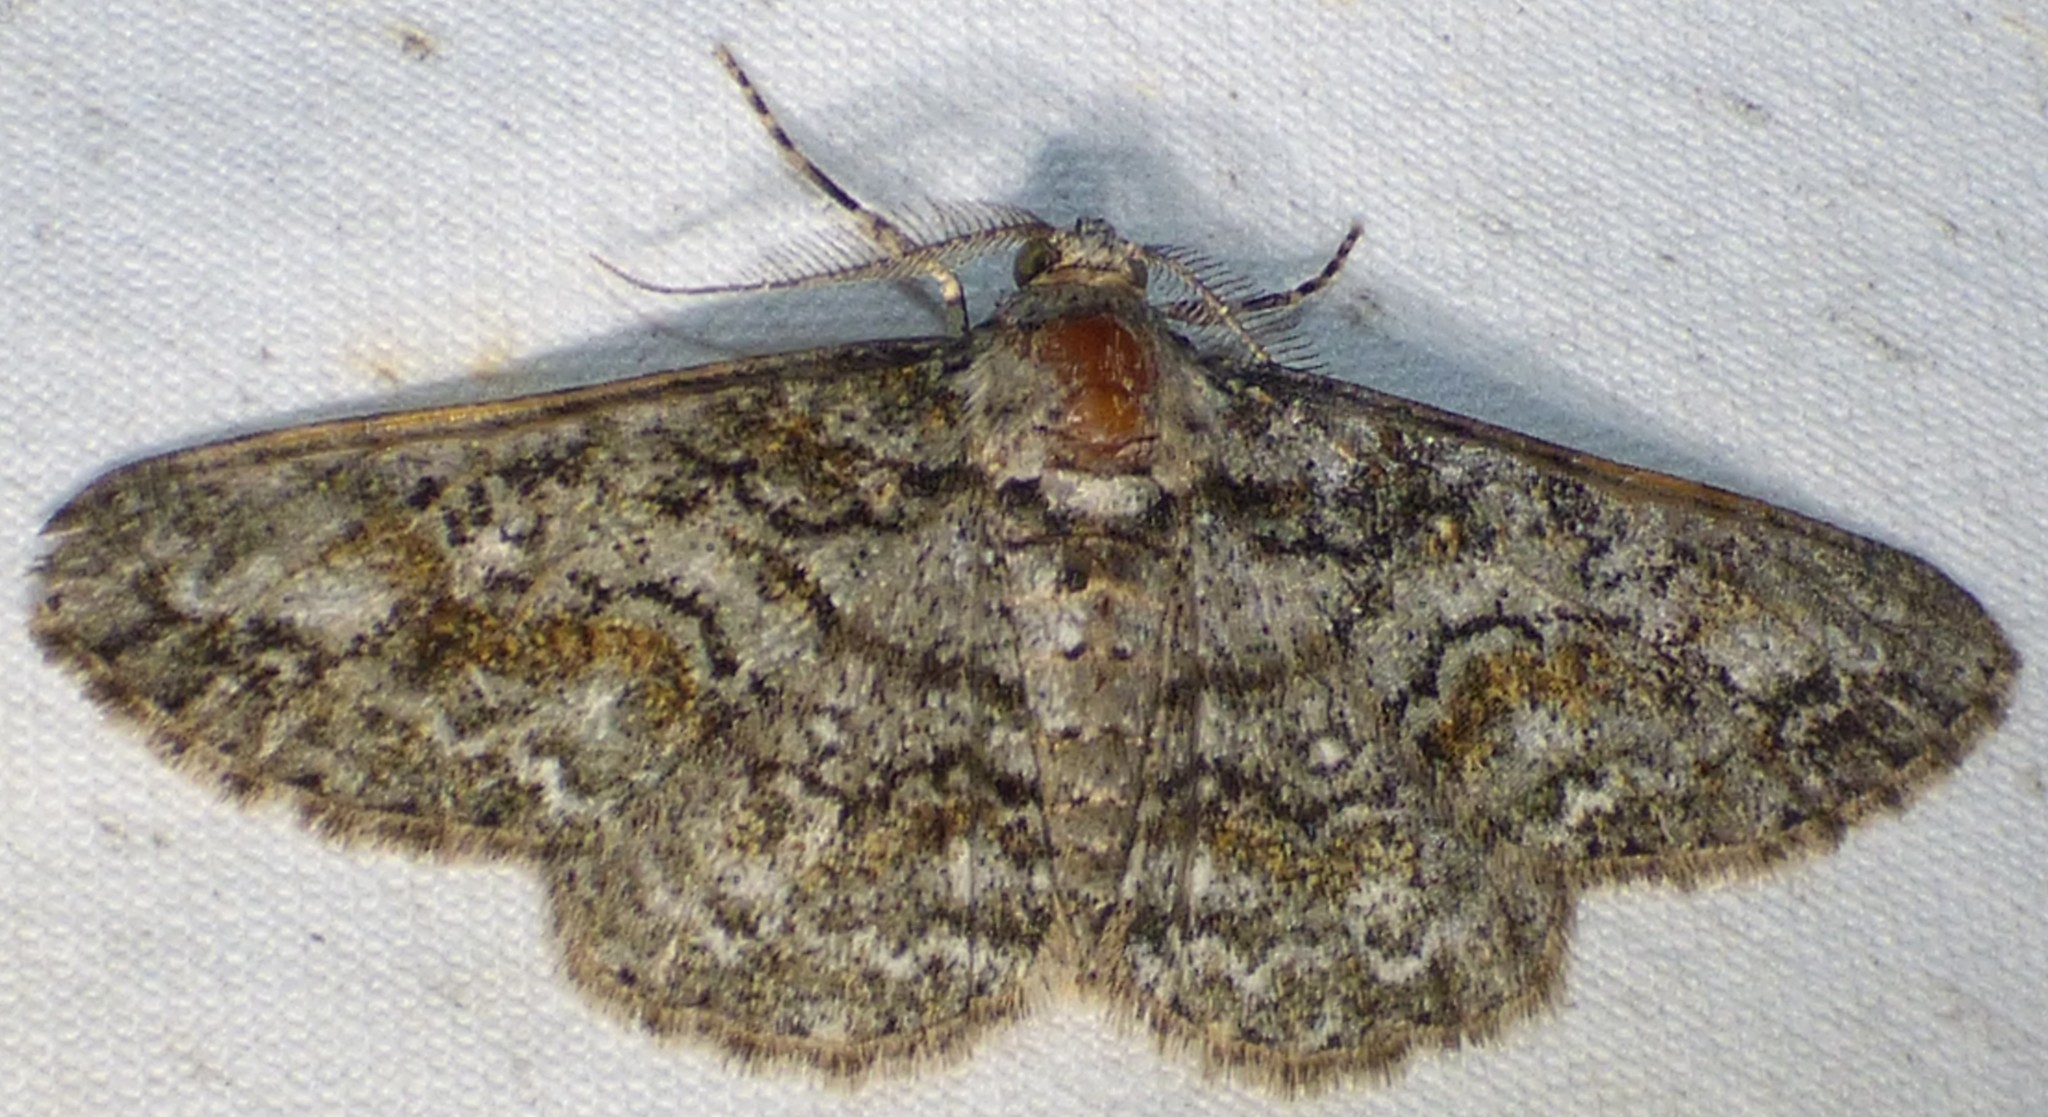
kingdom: Animalia
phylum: Arthropoda
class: Insecta
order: Lepidoptera
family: Geometridae
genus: Cleora
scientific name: Cleora sublunaria
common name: Double-lined gray
